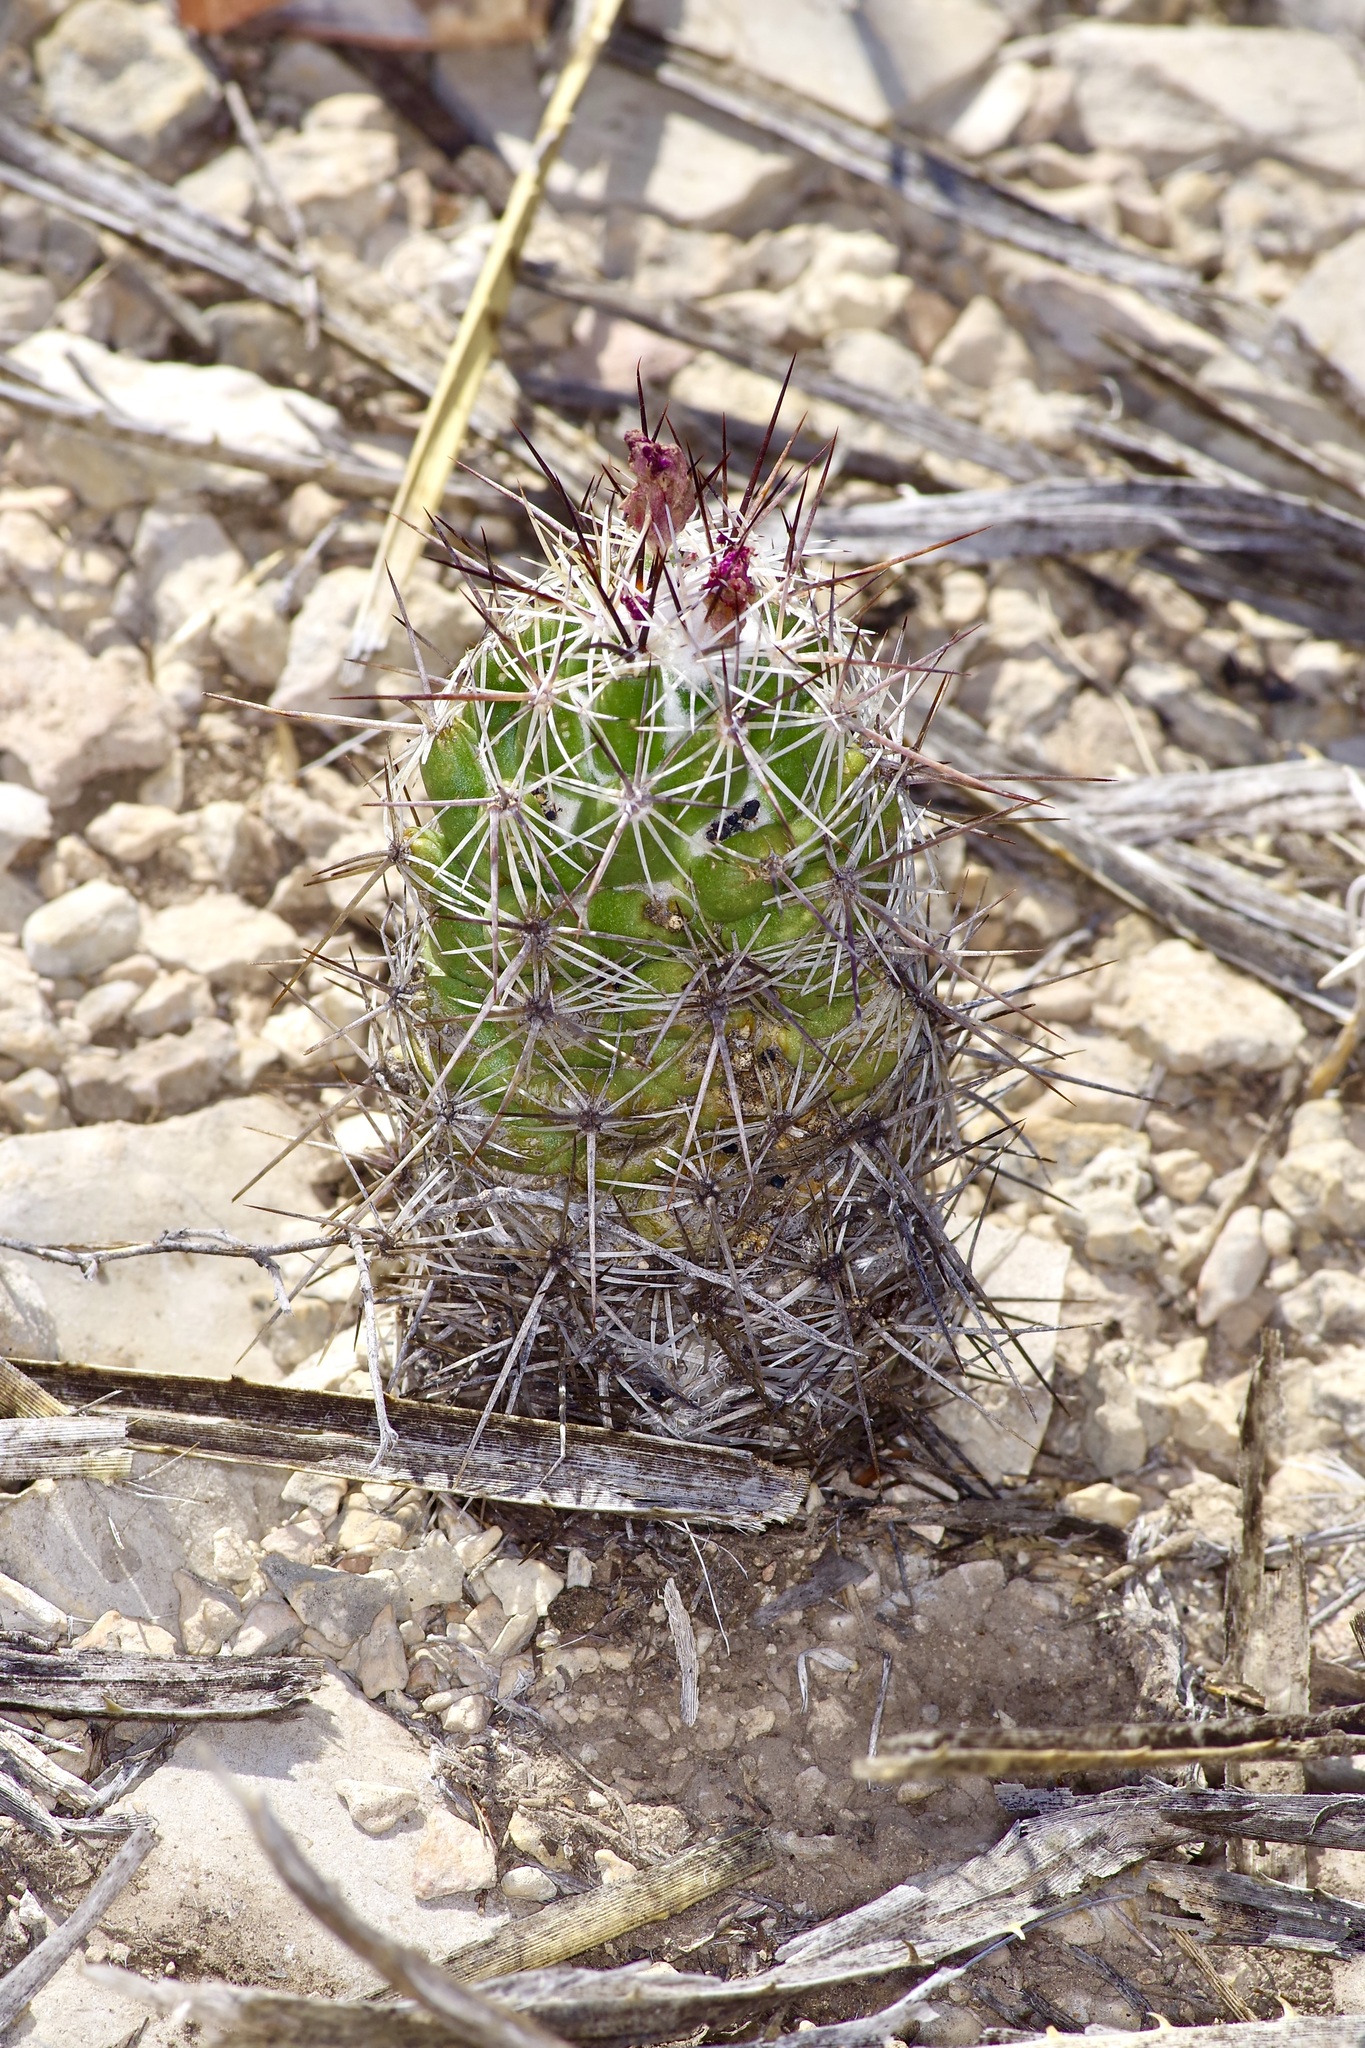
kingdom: Plantae
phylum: Tracheophyta
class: Magnoliopsida
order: Caryophyllales
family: Cactaceae
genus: Cochemiea
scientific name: Cochemiea conoidea
